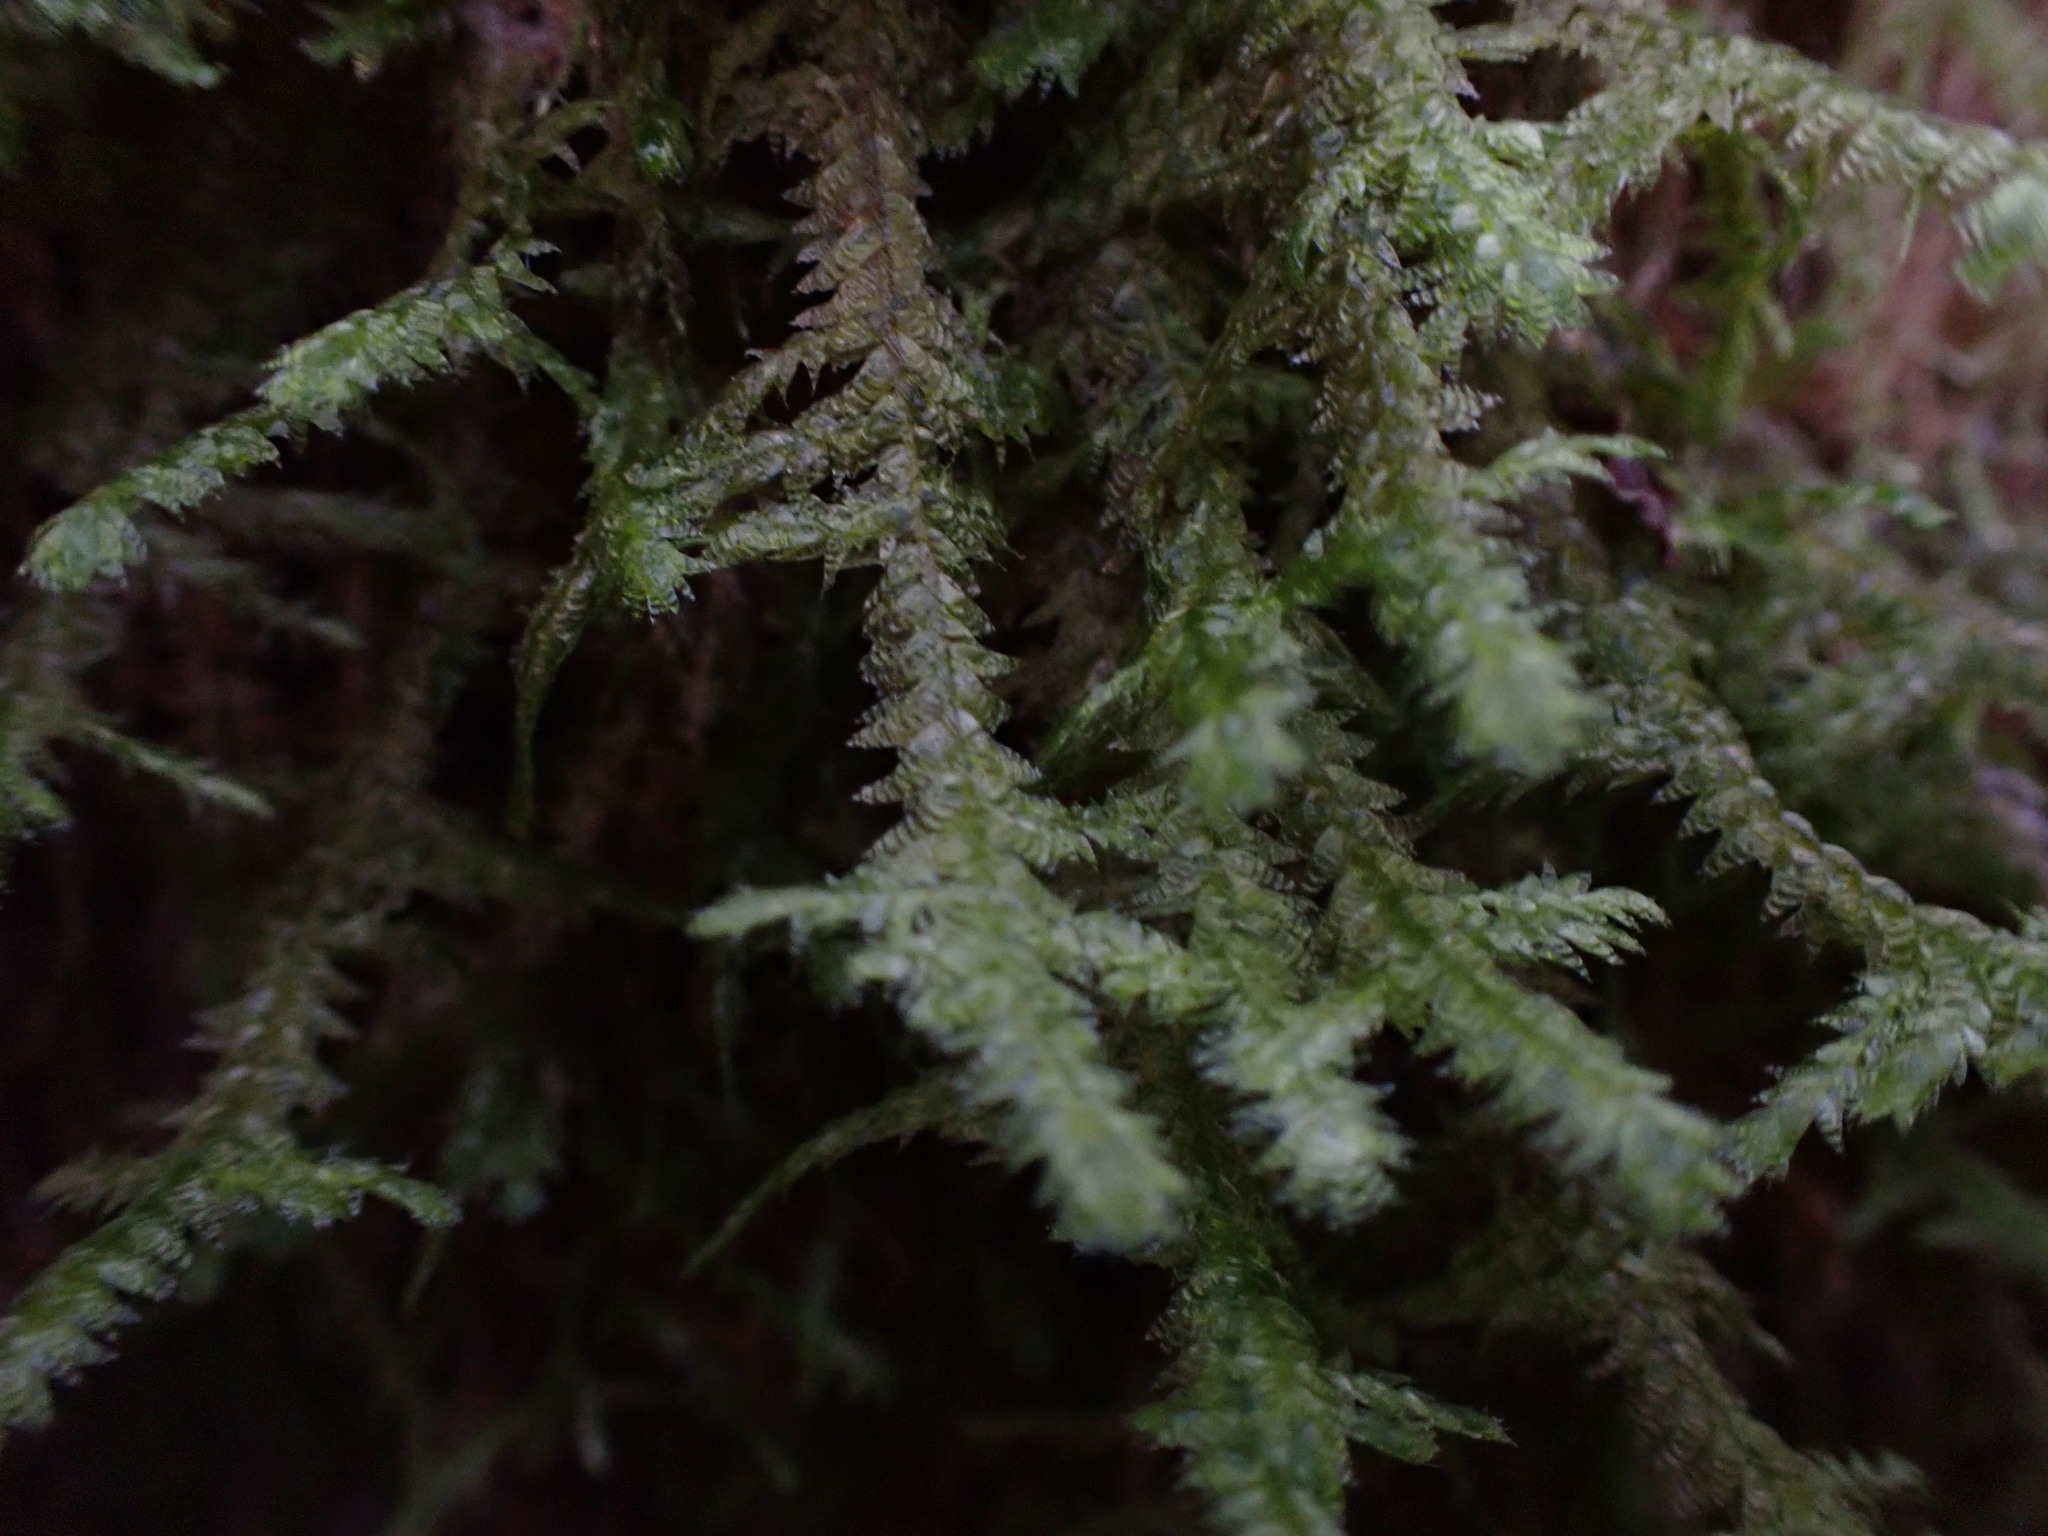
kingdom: Plantae
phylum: Bryophyta
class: Bryopsida
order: Hypnales
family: Neckeraceae
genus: Neckera
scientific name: Neckera douglasii
